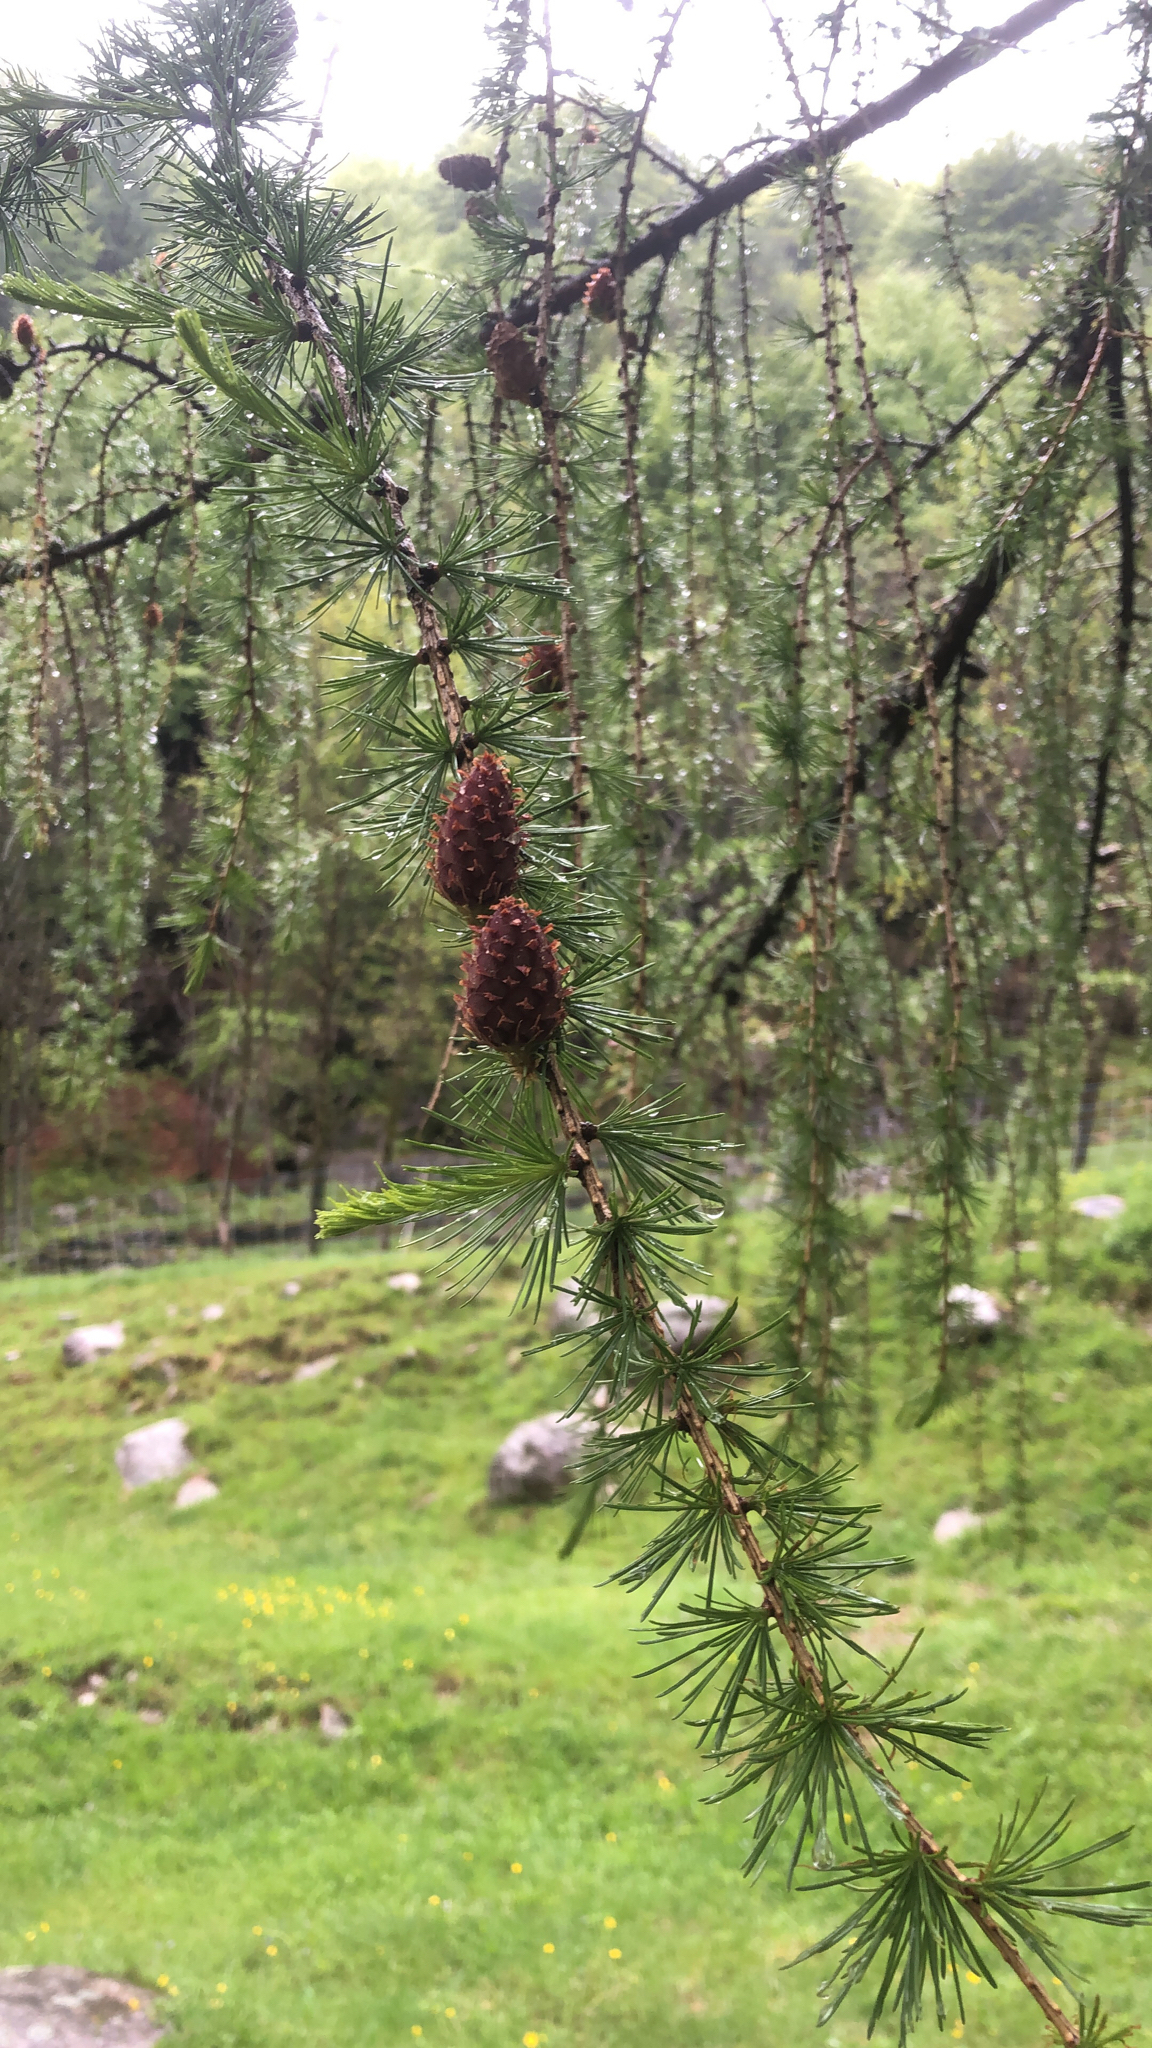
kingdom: Plantae
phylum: Tracheophyta
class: Pinopsida
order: Pinales
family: Pinaceae
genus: Larix
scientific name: Larix decidua
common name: European larch
